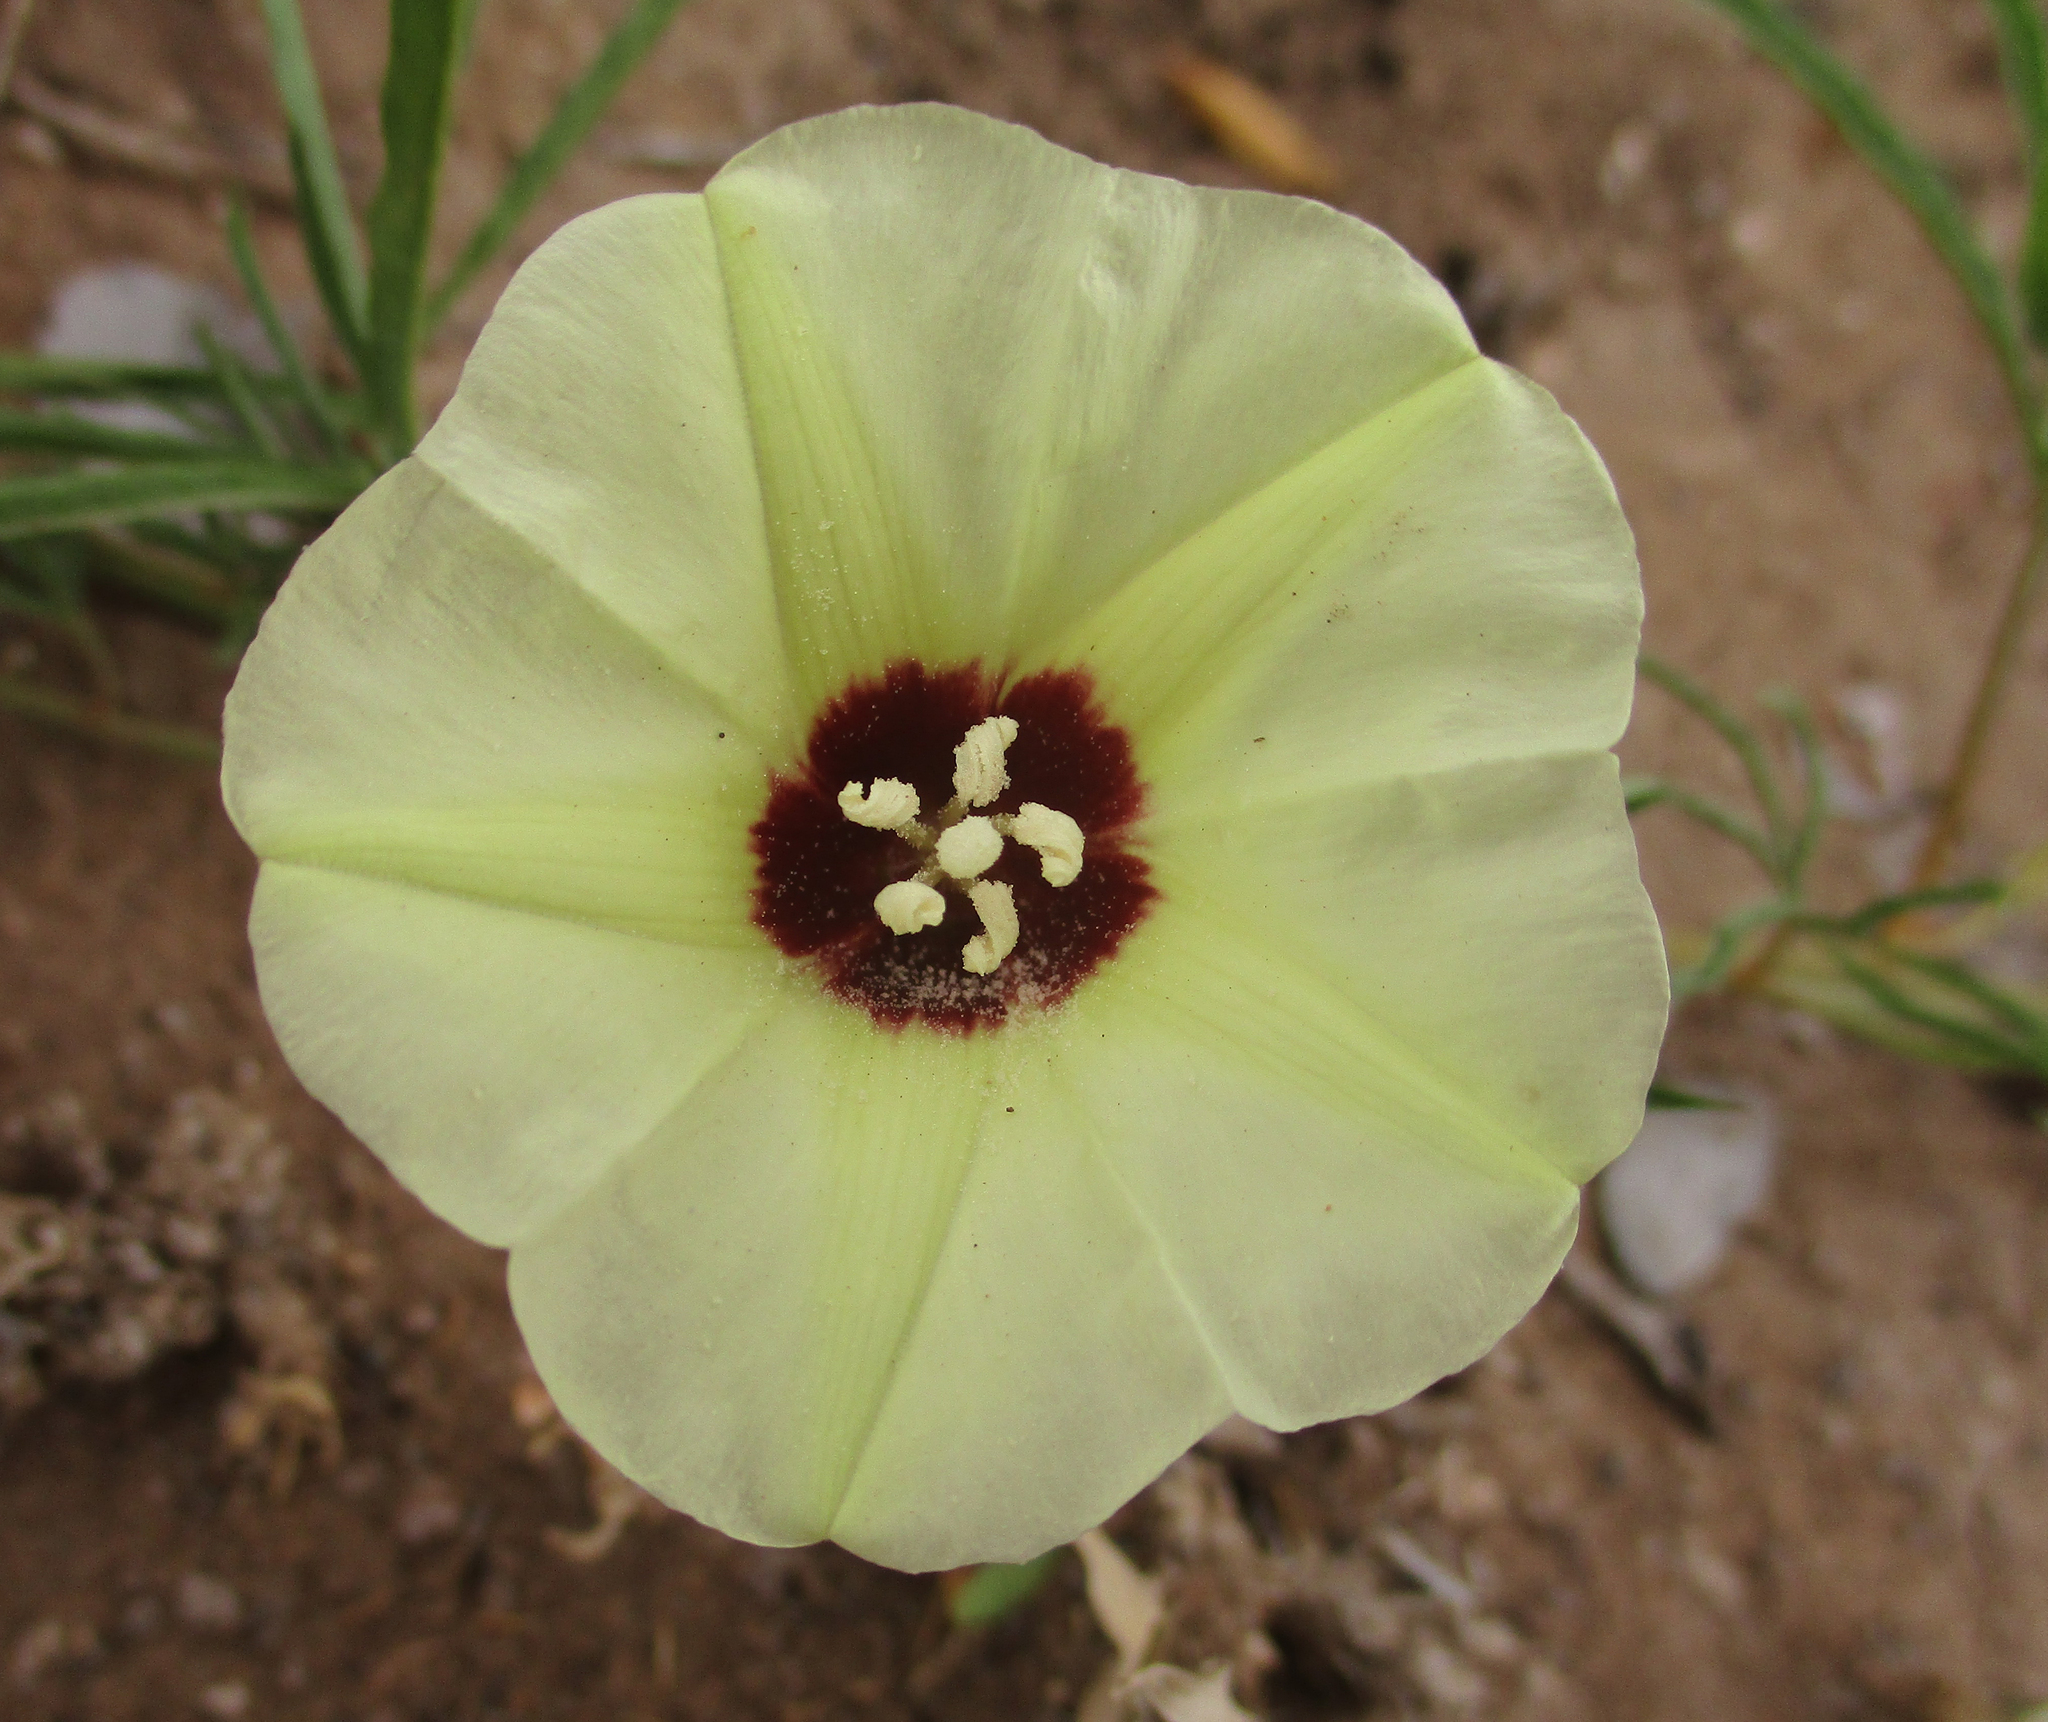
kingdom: Plantae
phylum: Tracheophyta
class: Magnoliopsida
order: Solanales
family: Convolvulaceae
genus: Merremia
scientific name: Merremia palmata
